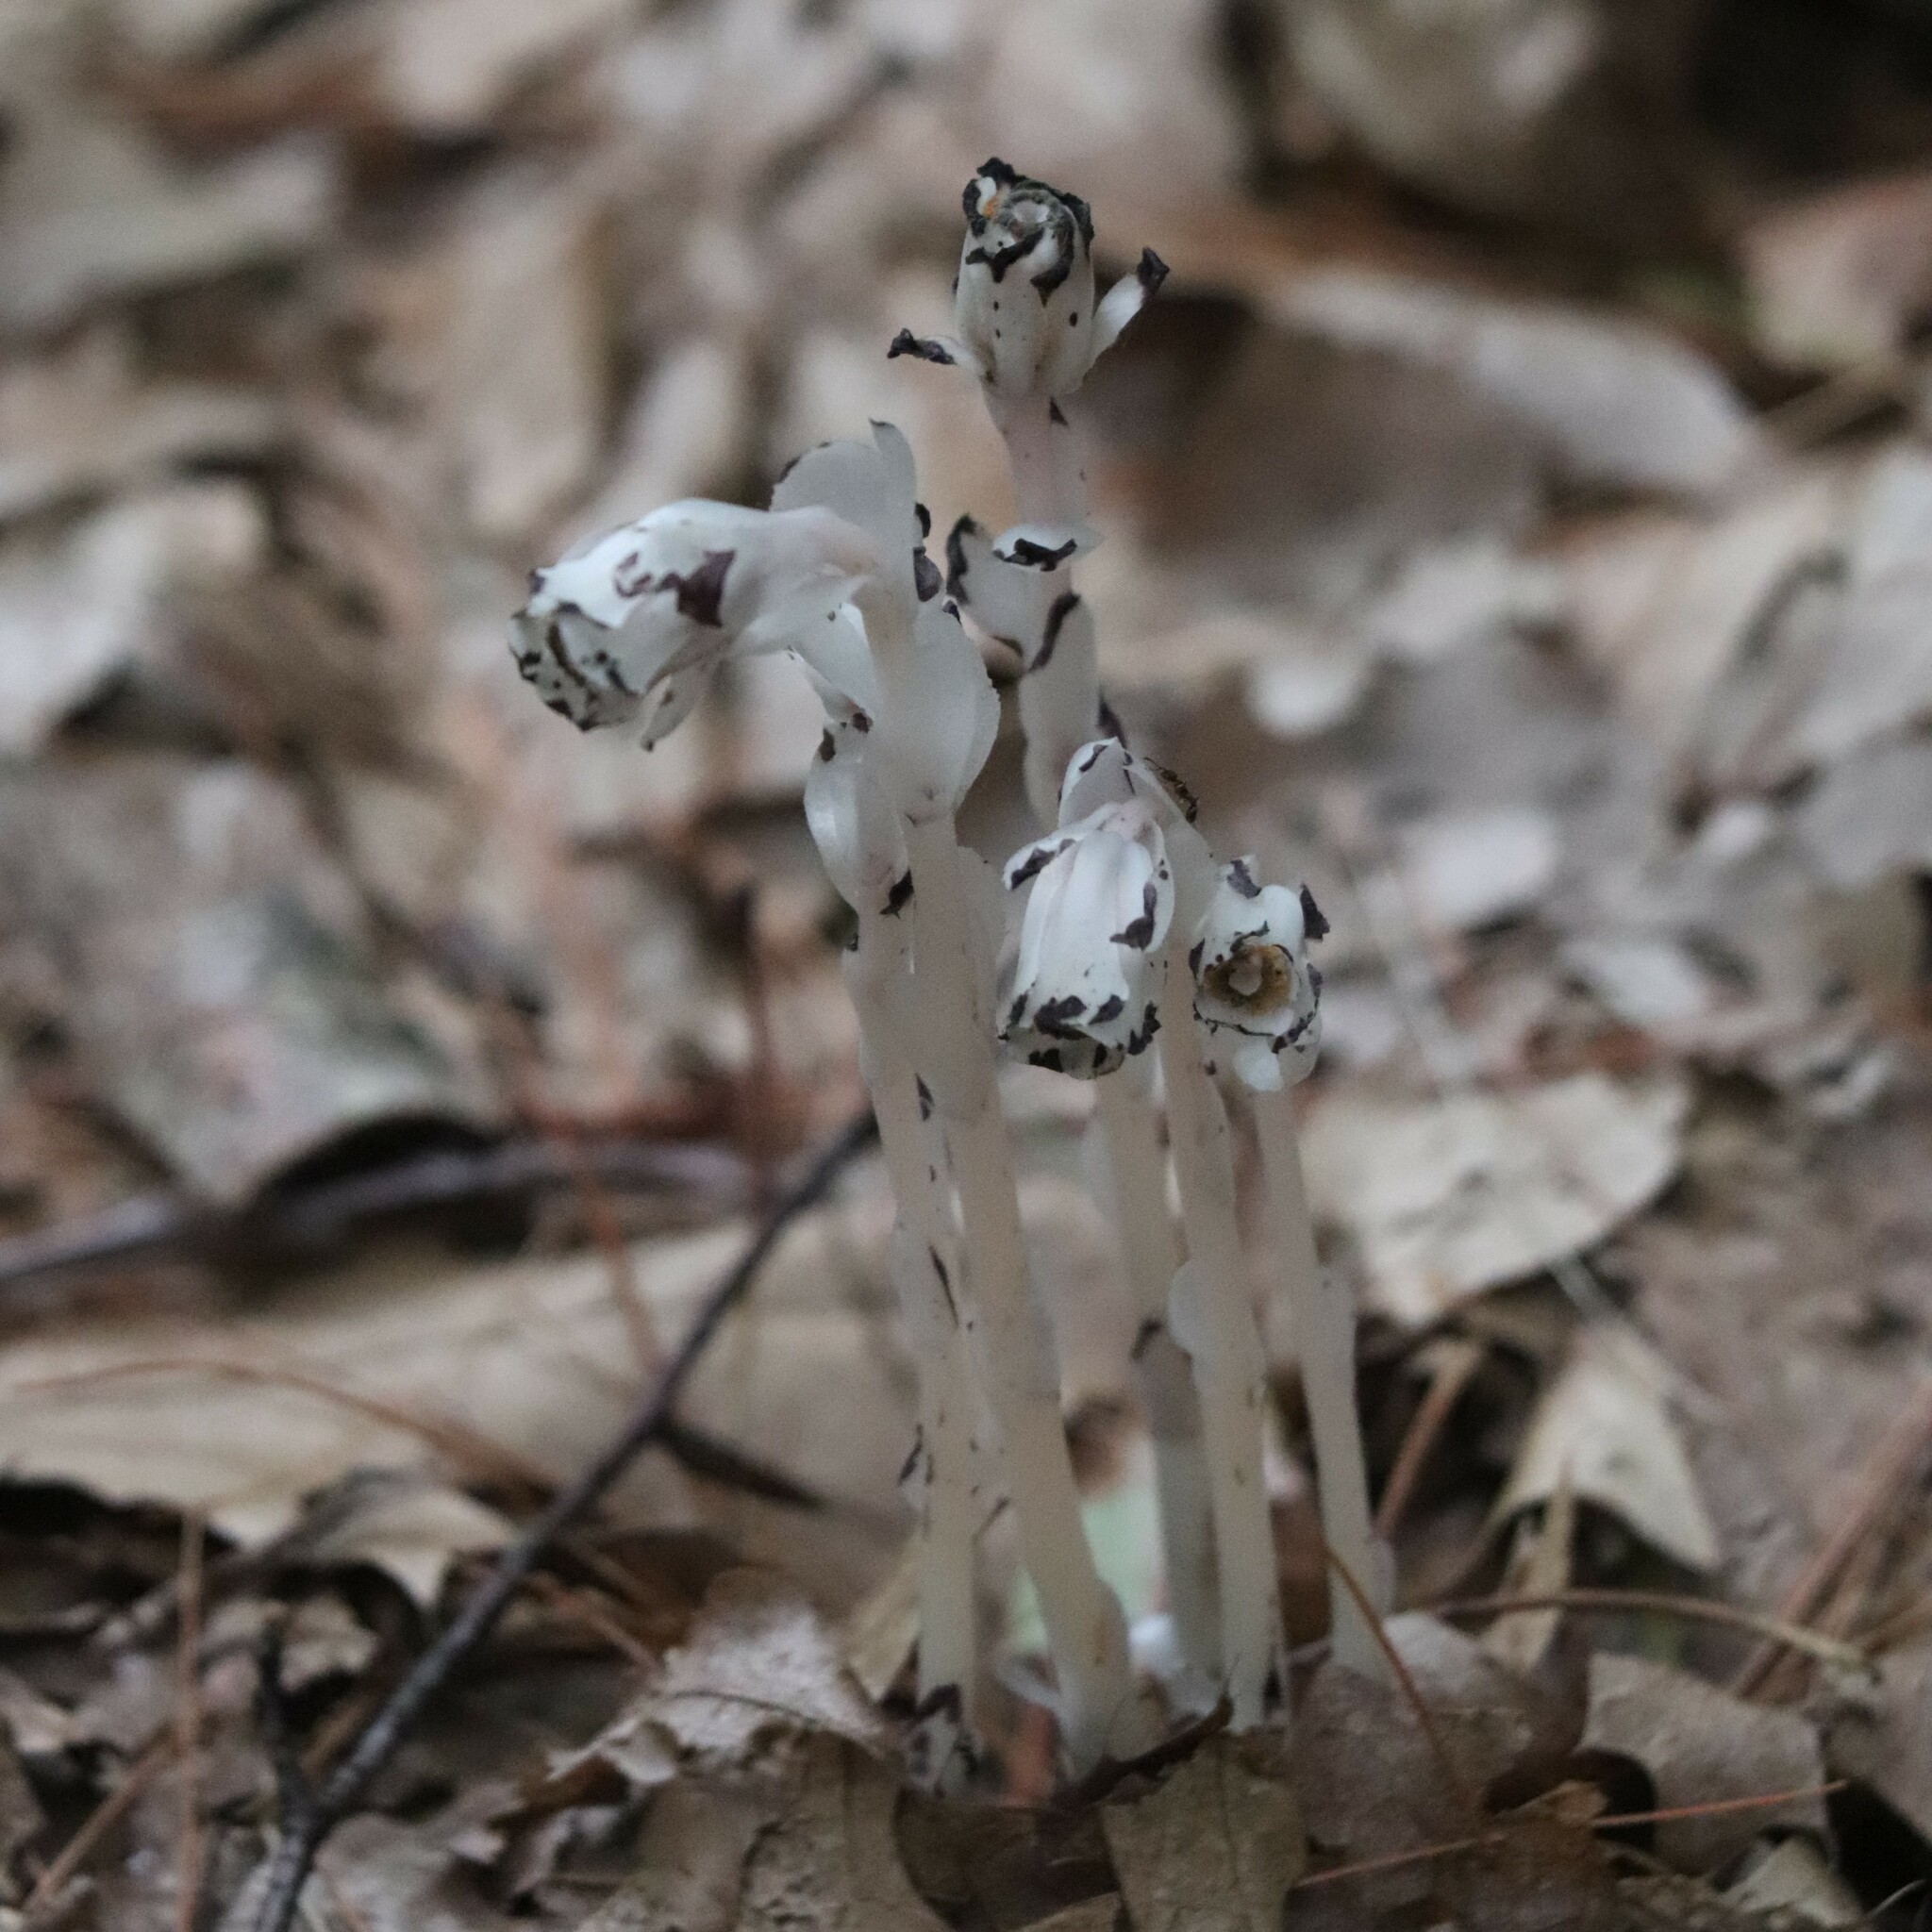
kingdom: Plantae
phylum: Tracheophyta
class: Magnoliopsida
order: Ericales
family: Ericaceae
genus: Monotropa
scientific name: Monotropa uniflora
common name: Convulsion root
